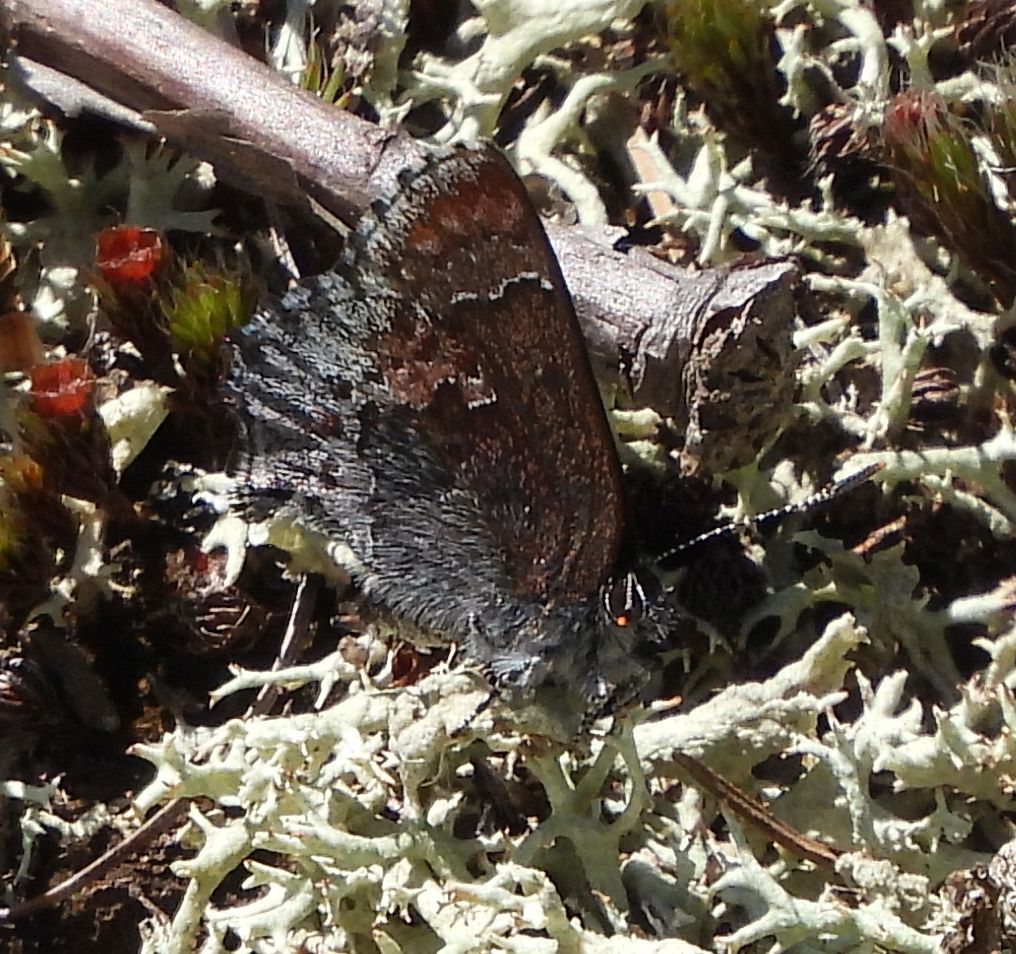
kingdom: Animalia
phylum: Arthropoda
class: Insecta
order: Lepidoptera
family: Lycaenidae
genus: Callophrys
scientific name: Callophrys polios
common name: Hoary elfin
